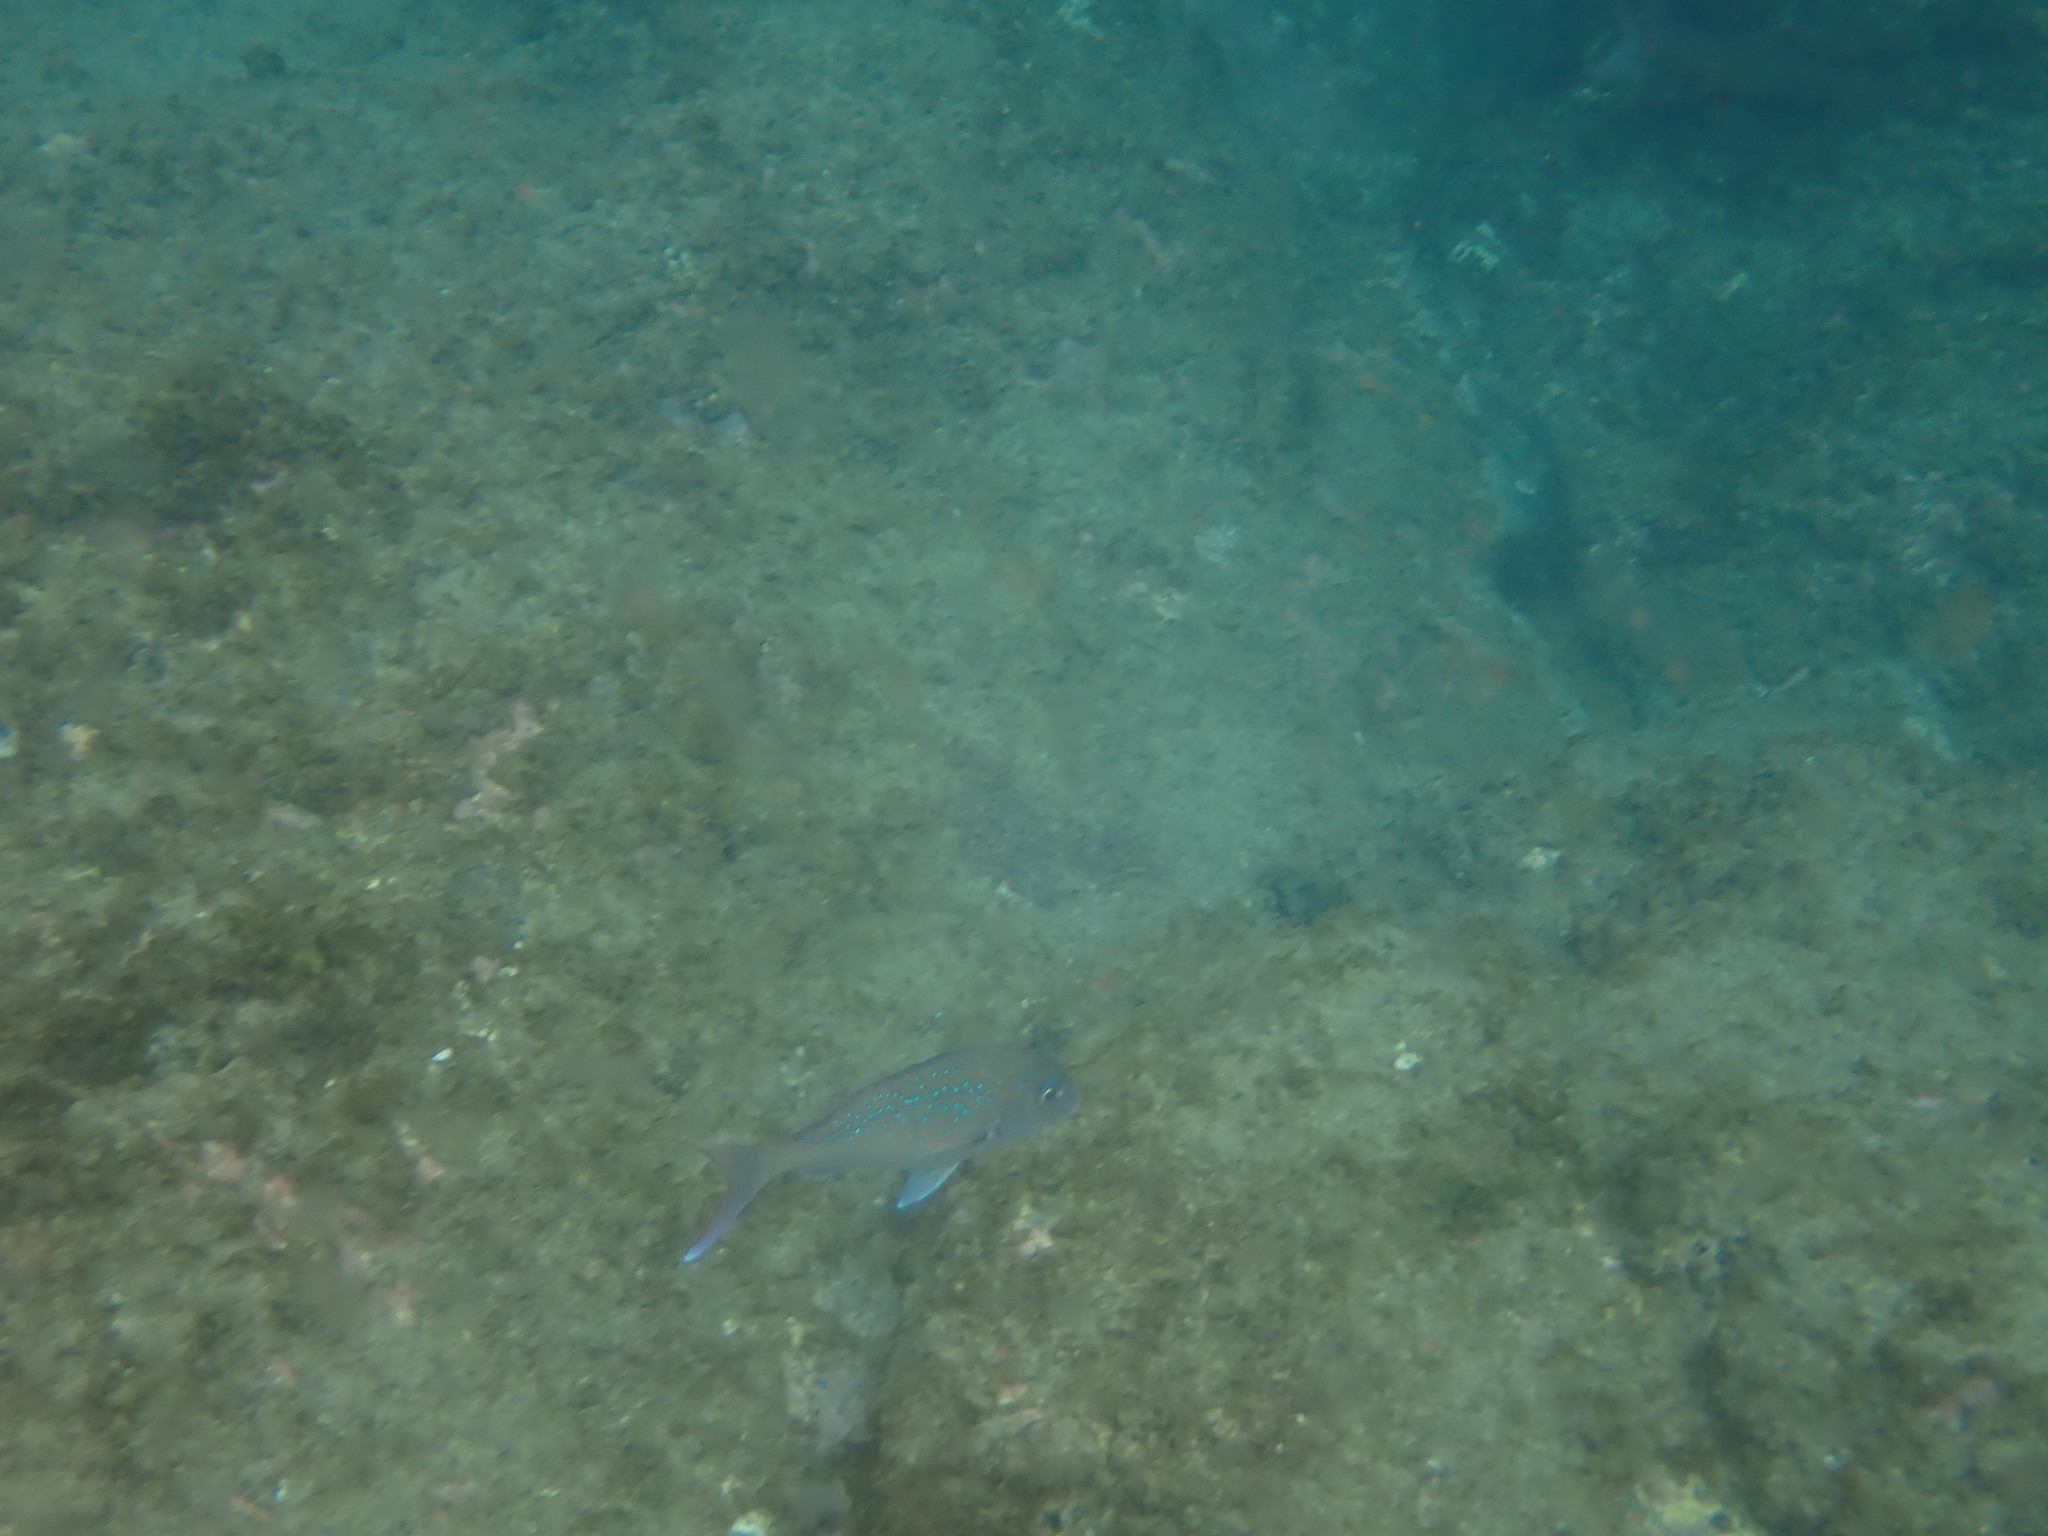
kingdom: Animalia
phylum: Chordata
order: Perciformes
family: Sparidae
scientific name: Sparidae
